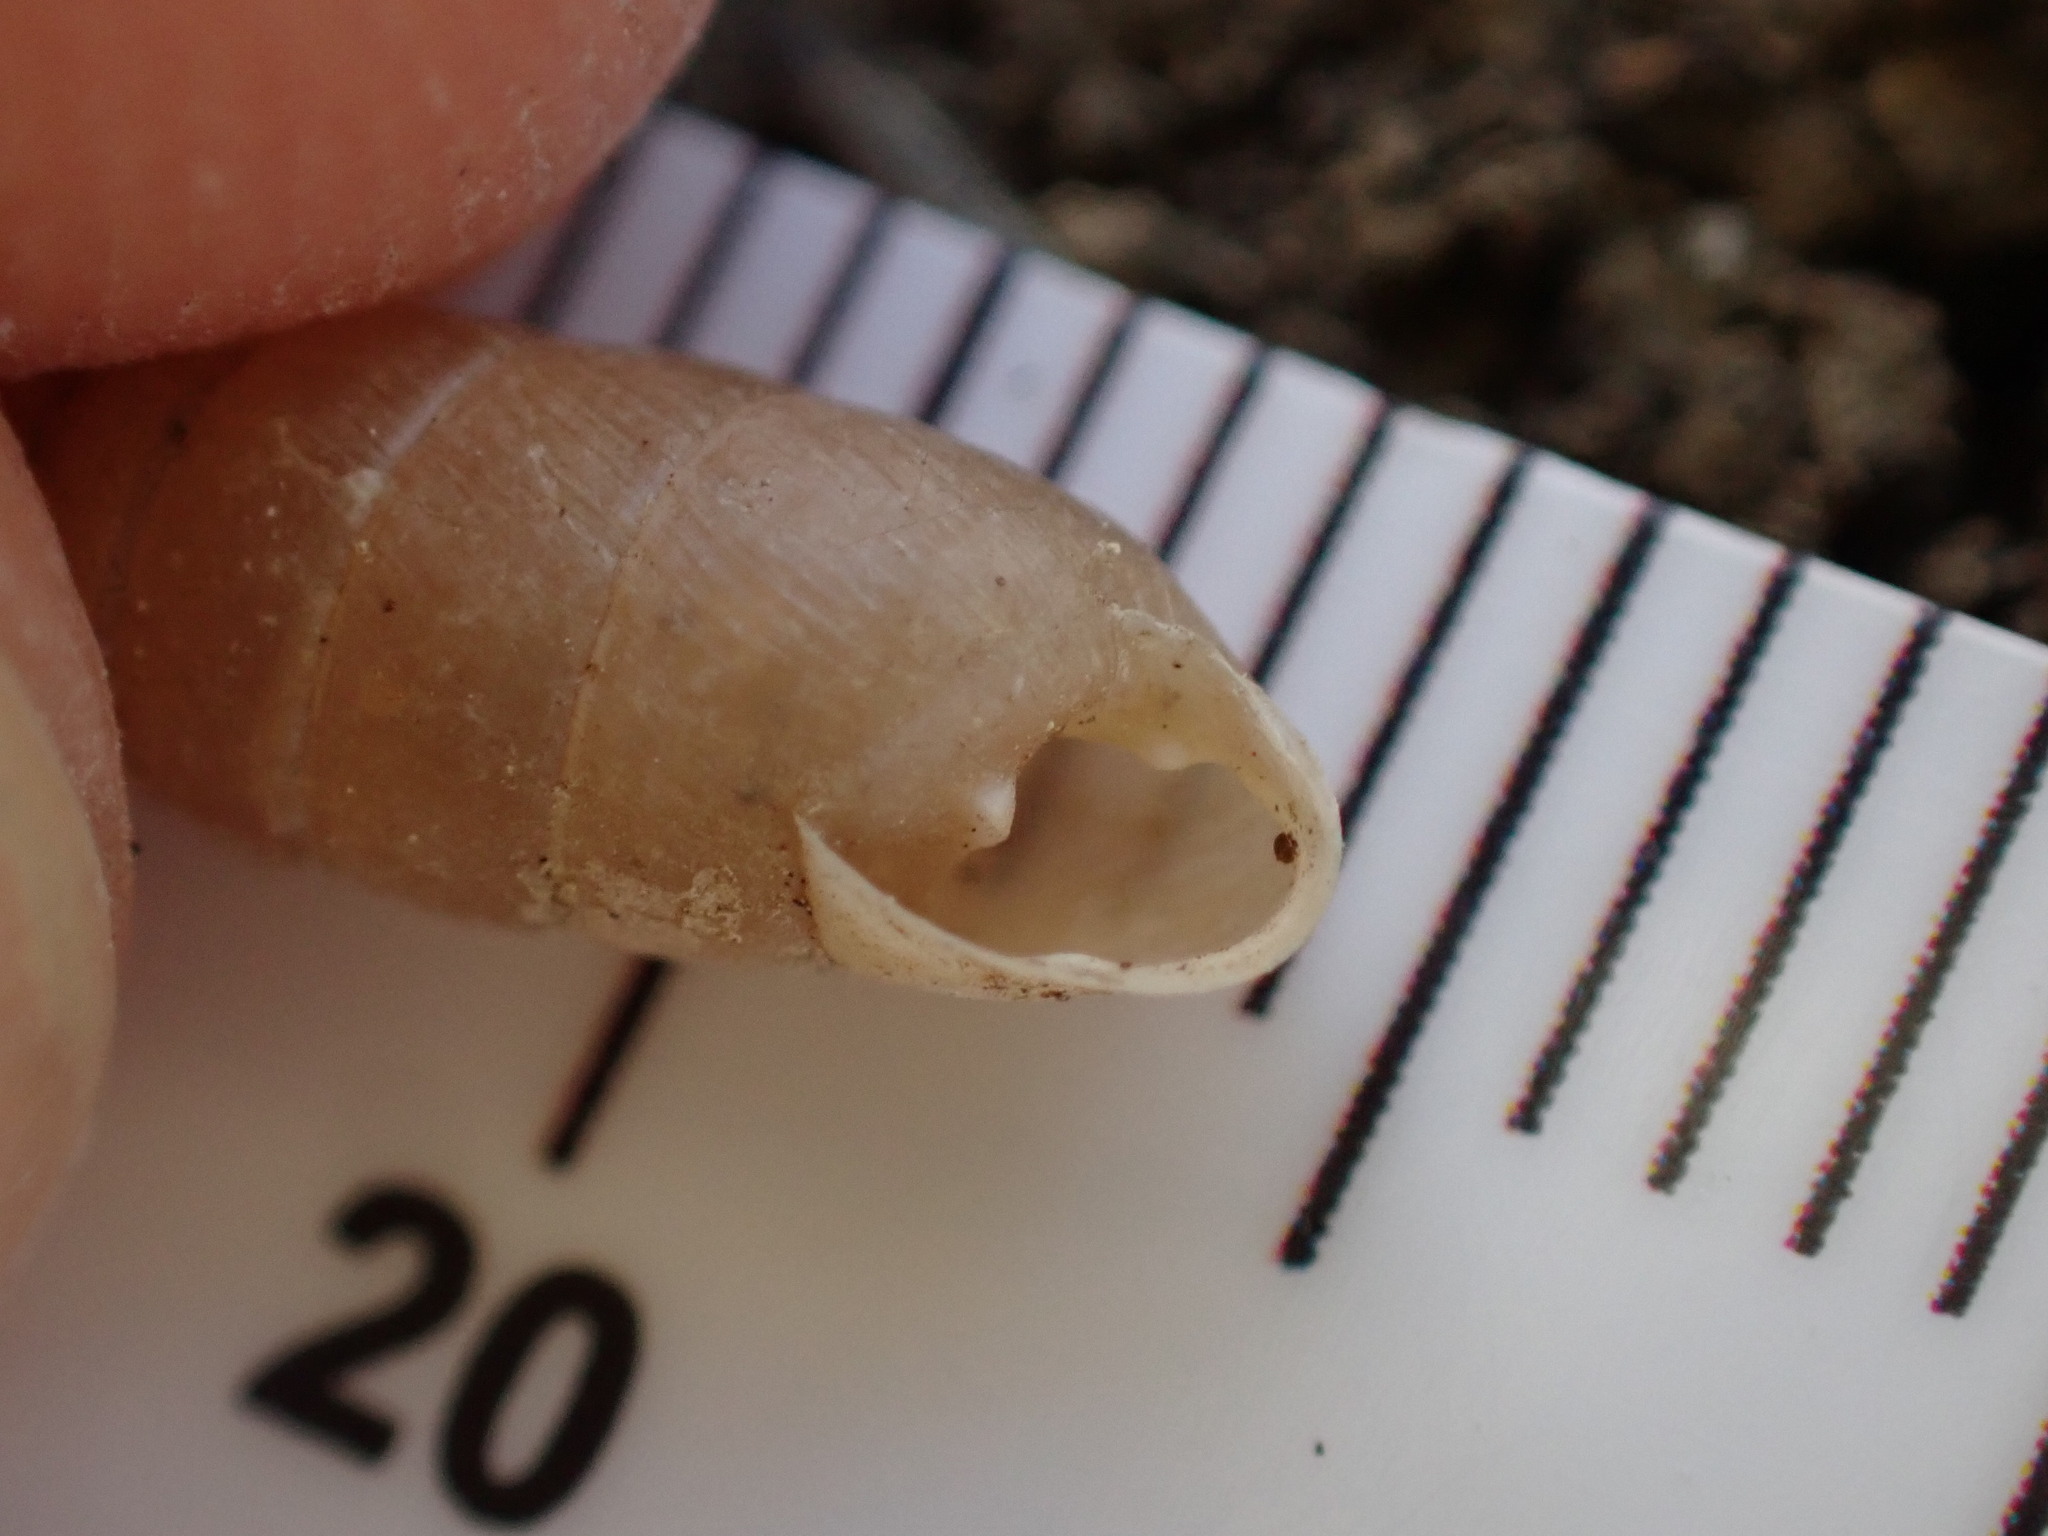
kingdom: Animalia
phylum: Mollusca
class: Gastropoda
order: Stylommatophora
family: Enidae
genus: Jaminia
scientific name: Jaminia quadridens
